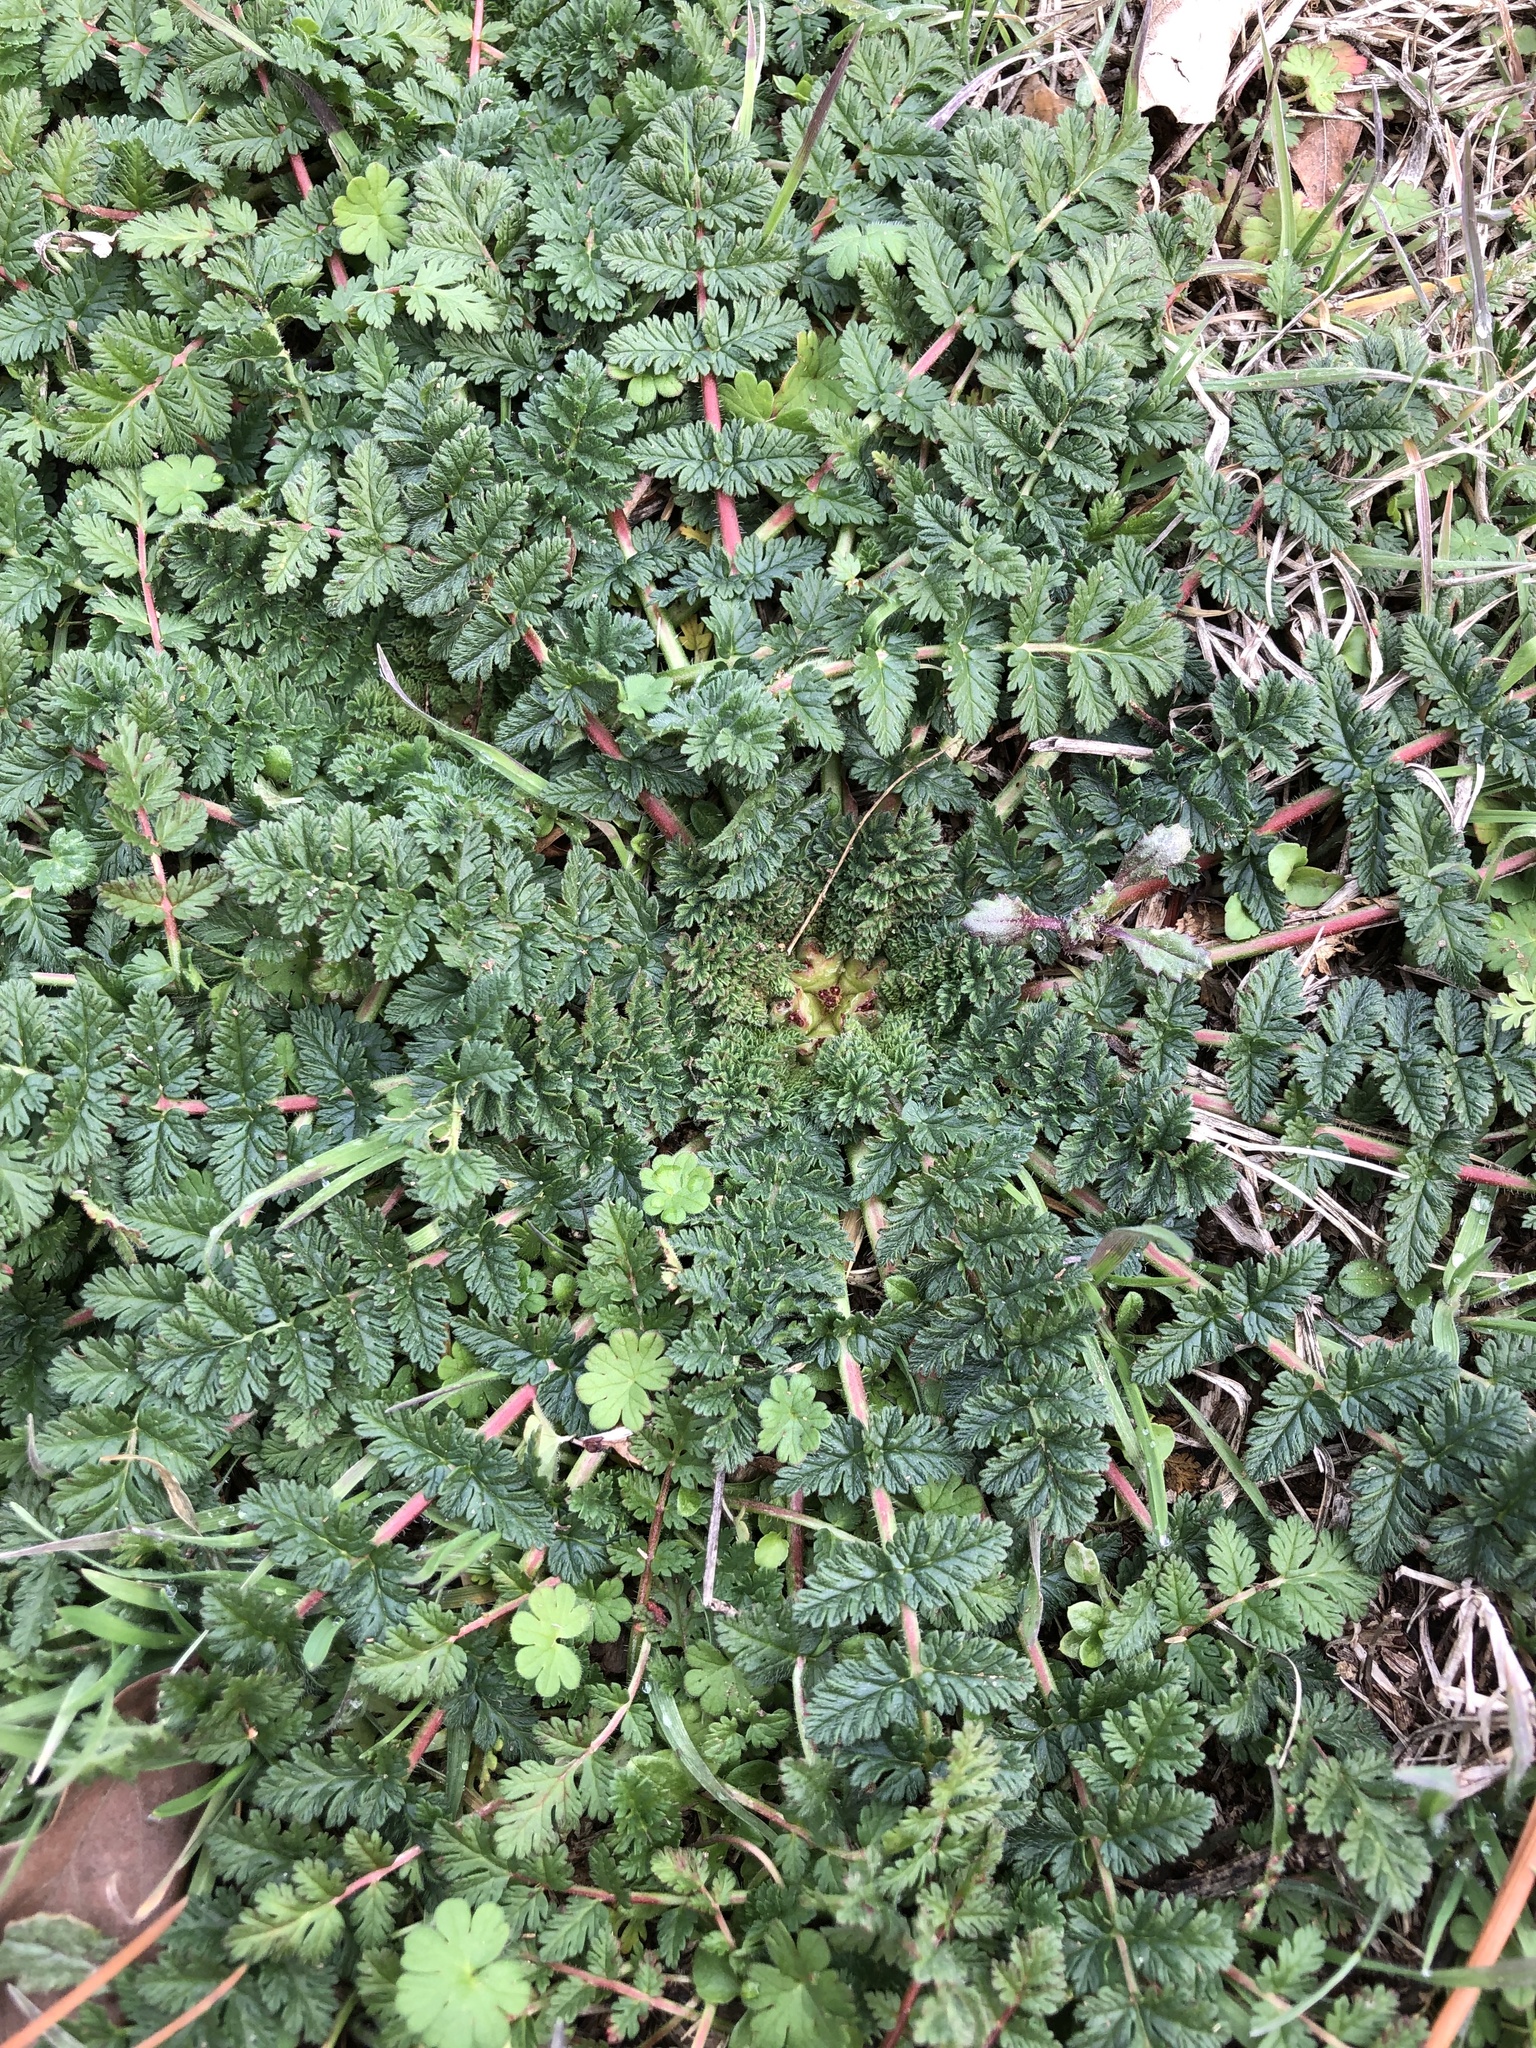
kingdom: Plantae
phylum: Tracheophyta
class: Magnoliopsida
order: Geraniales
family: Geraniaceae
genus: Erodium
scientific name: Erodium cicutarium
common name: Common stork's-bill
